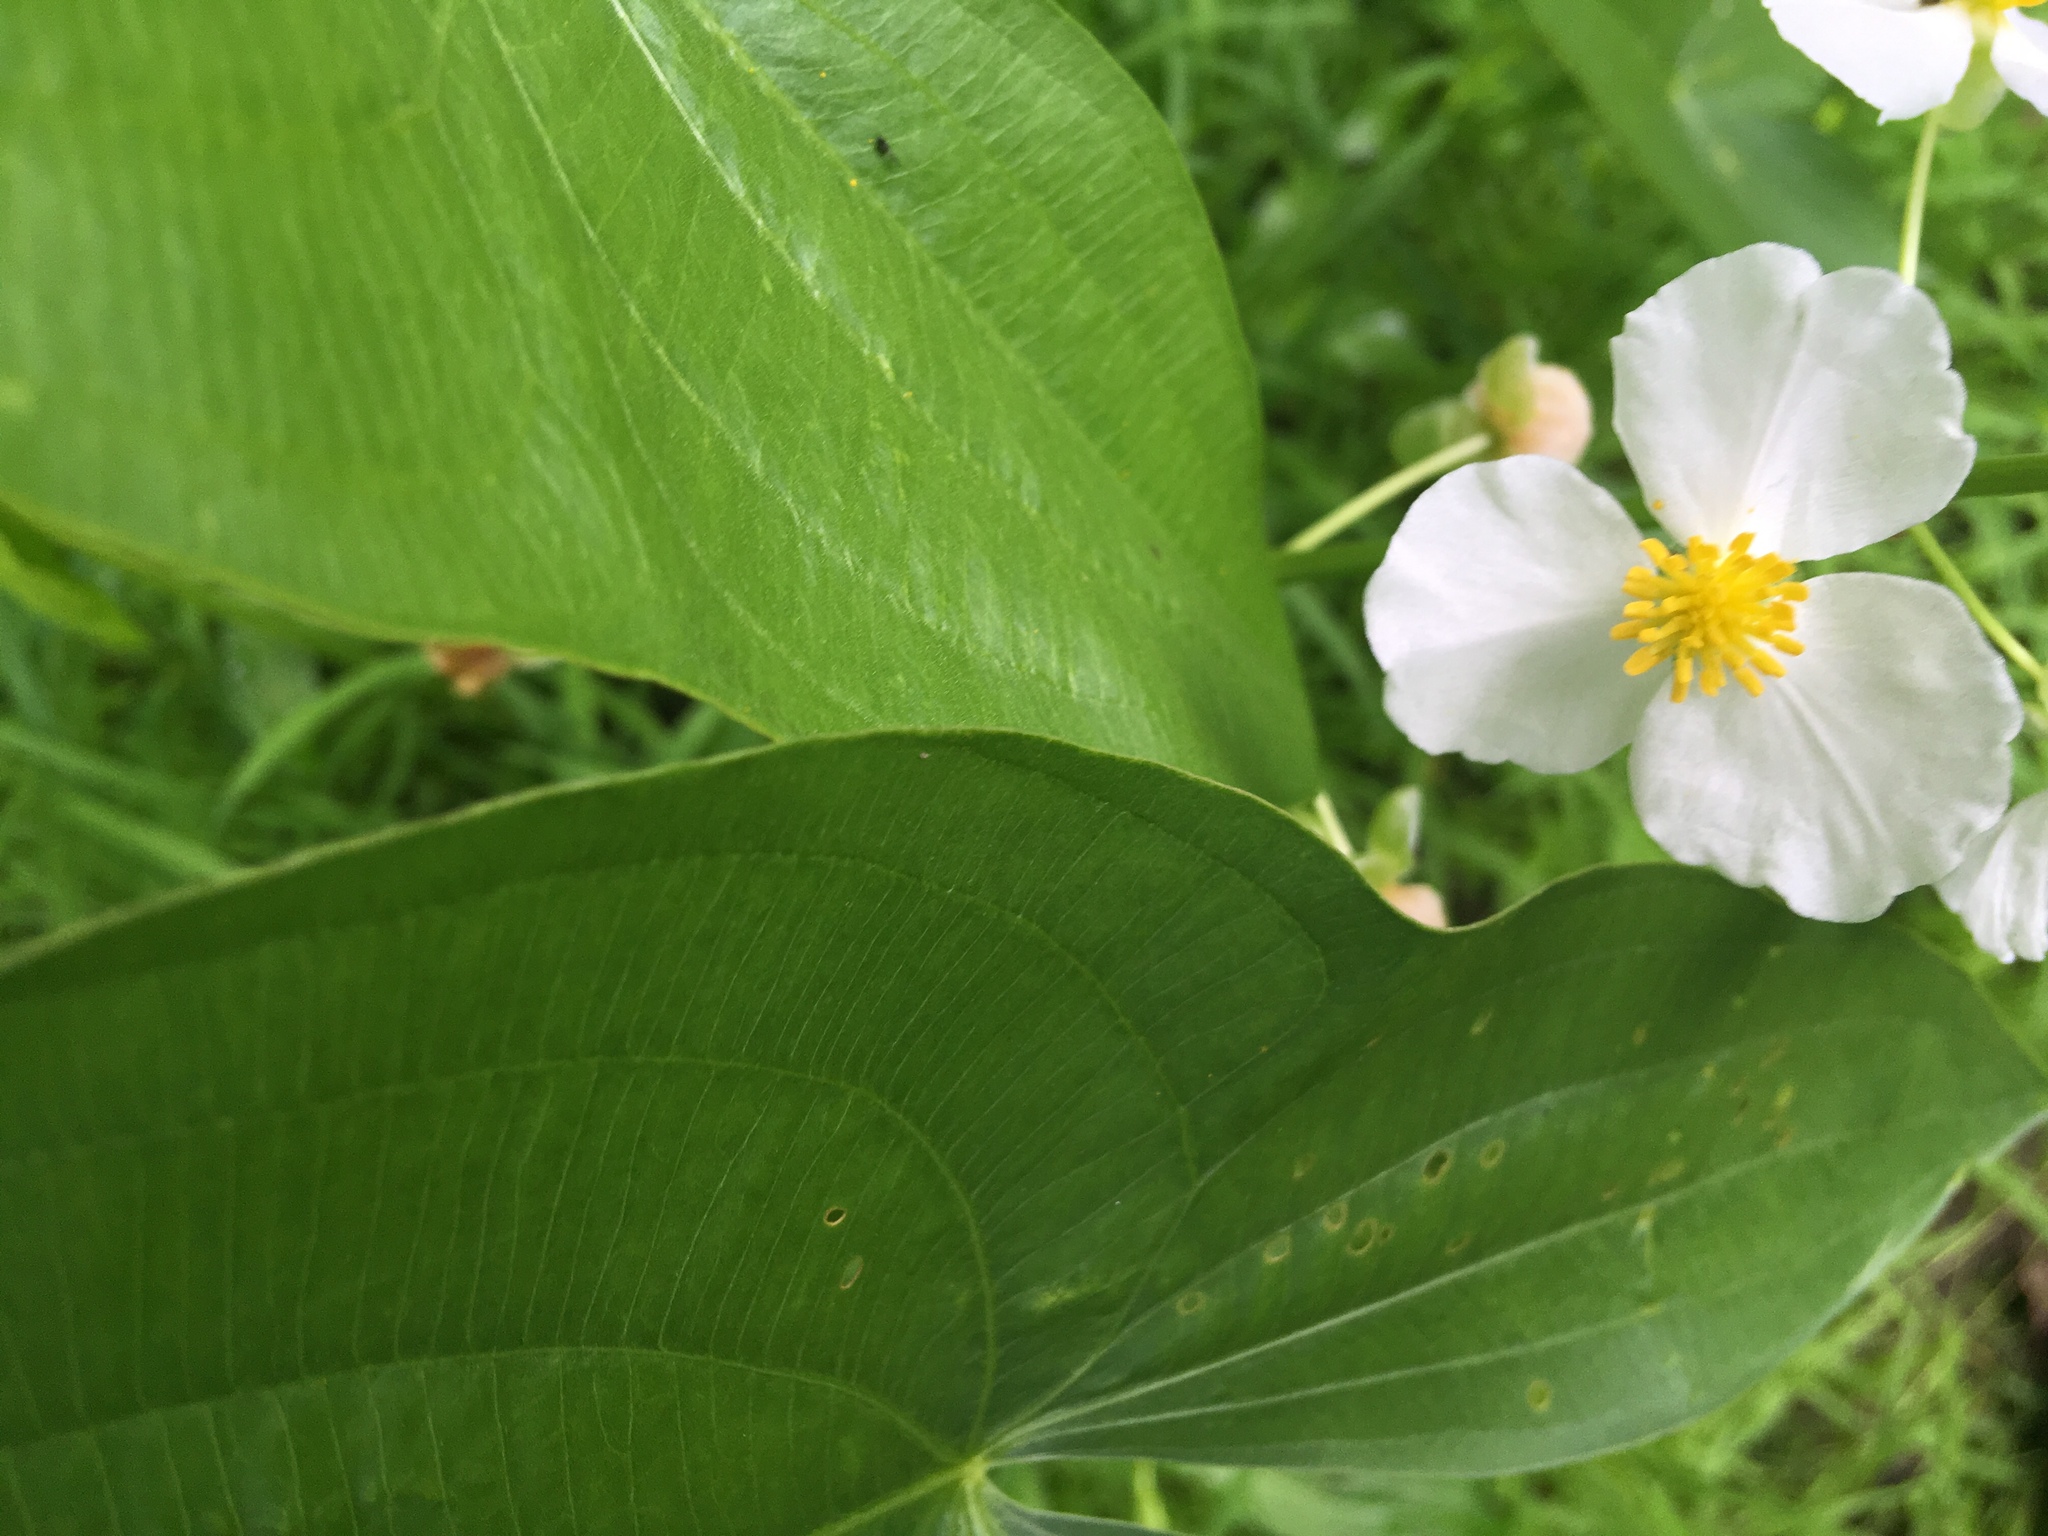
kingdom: Plantae
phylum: Tracheophyta
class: Liliopsida
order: Alismatales
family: Alismataceae
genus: Sagittaria
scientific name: Sagittaria
